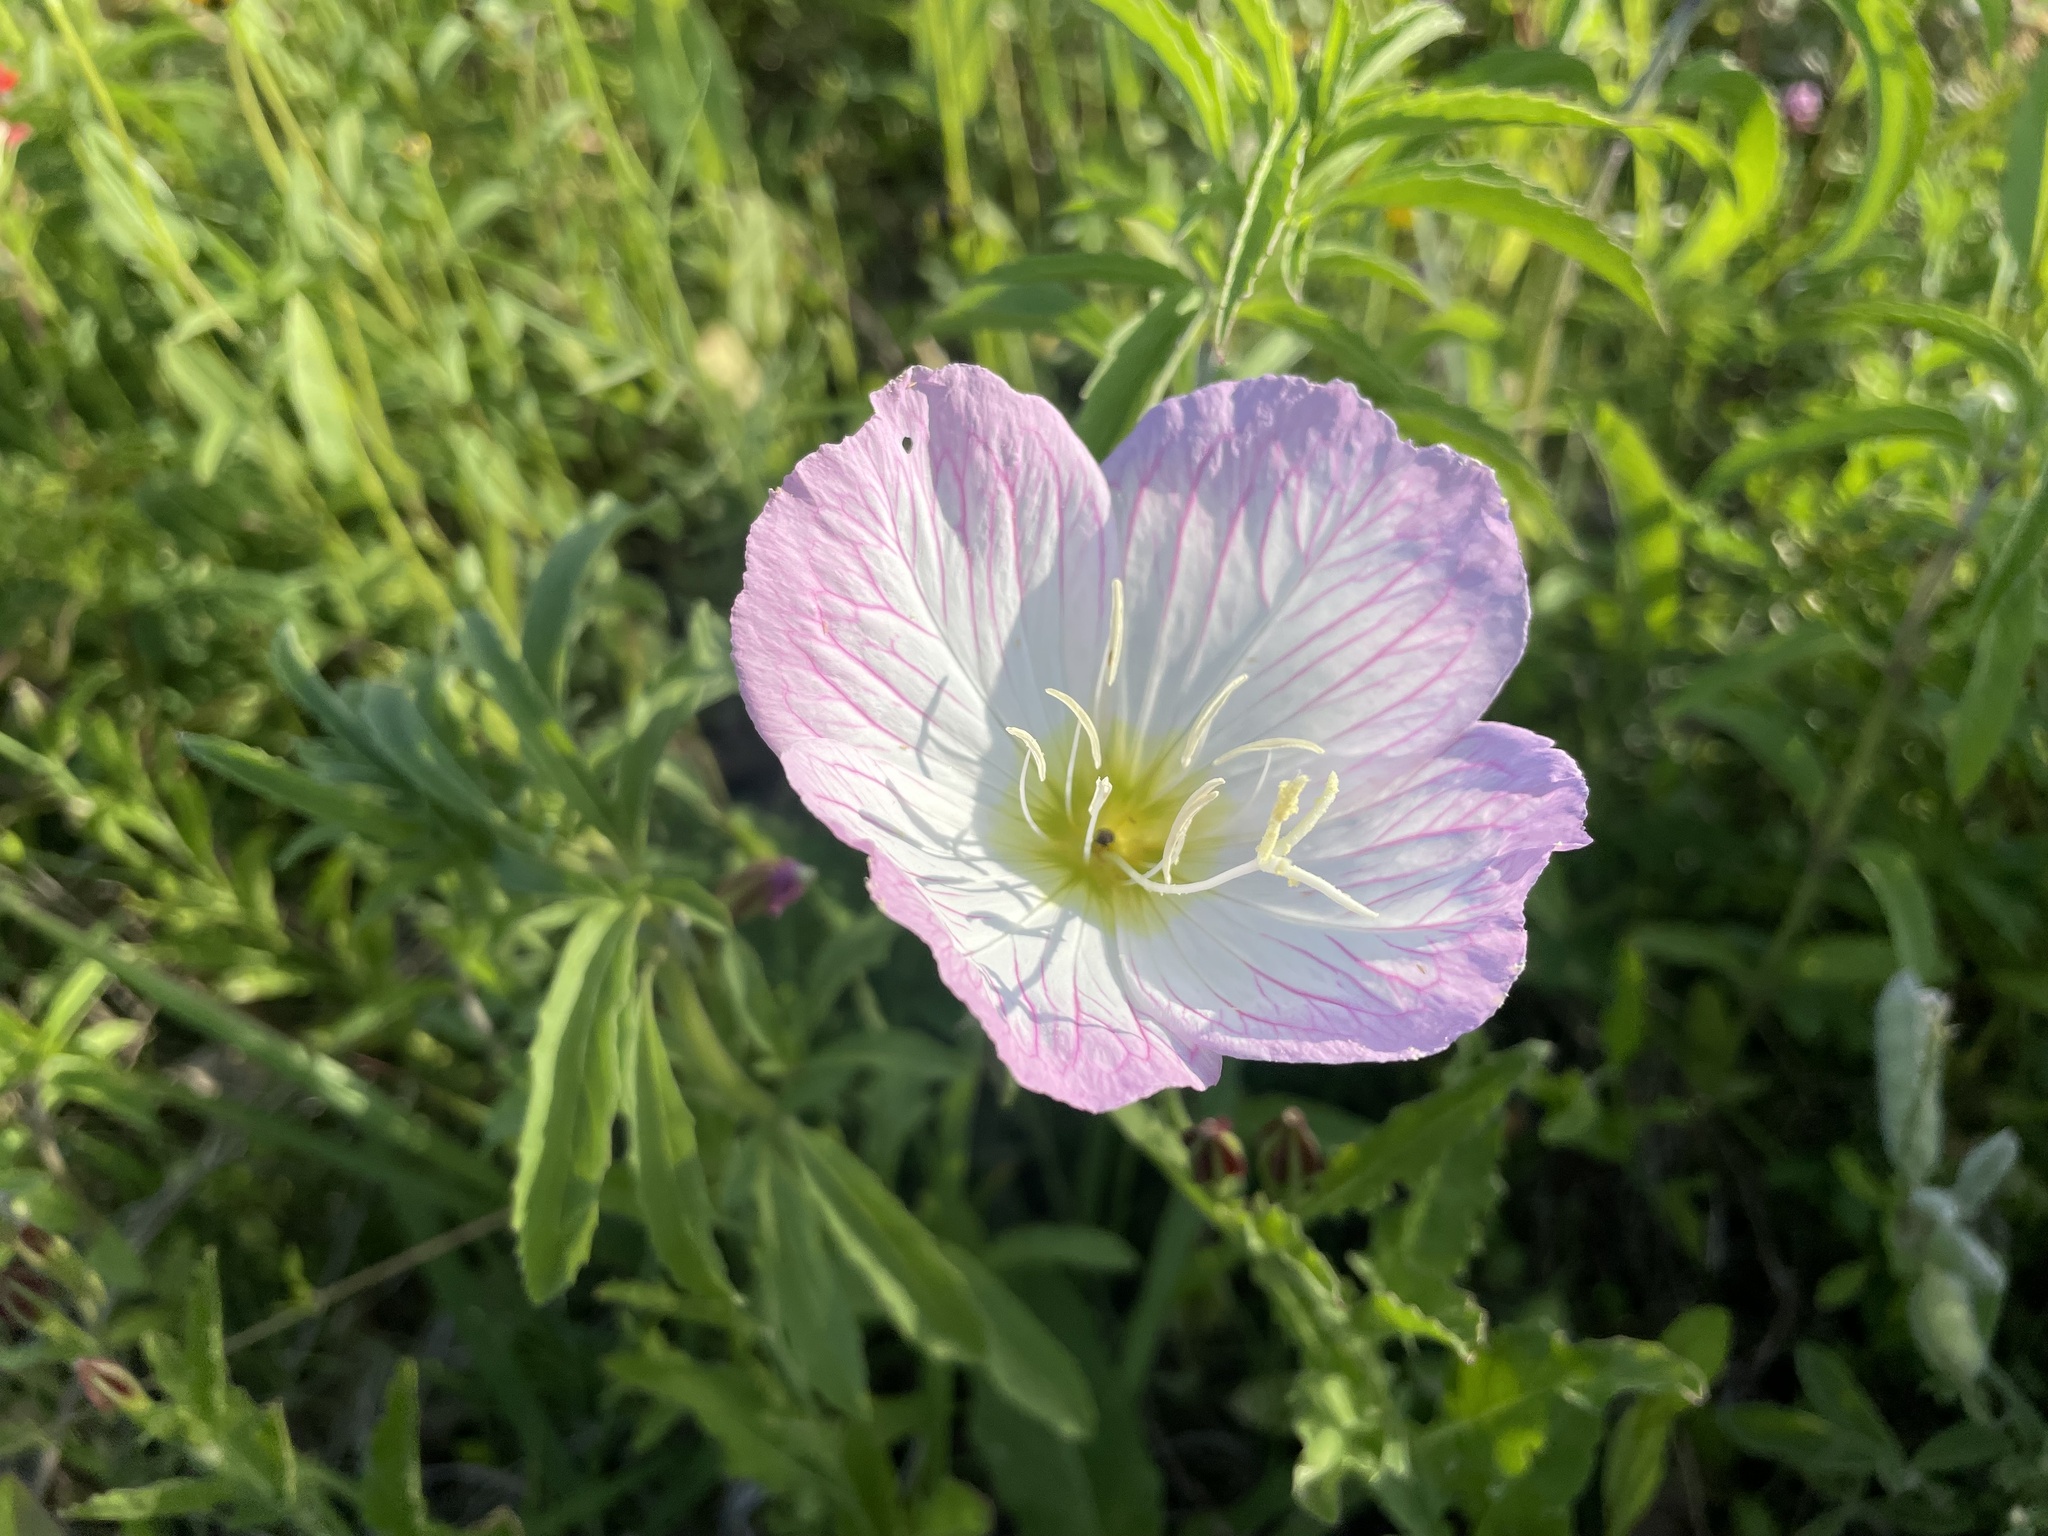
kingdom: Plantae
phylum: Tracheophyta
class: Magnoliopsida
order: Myrtales
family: Onagraceae
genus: Oenothera
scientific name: Oenothera speciosa
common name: White evening-primrose
